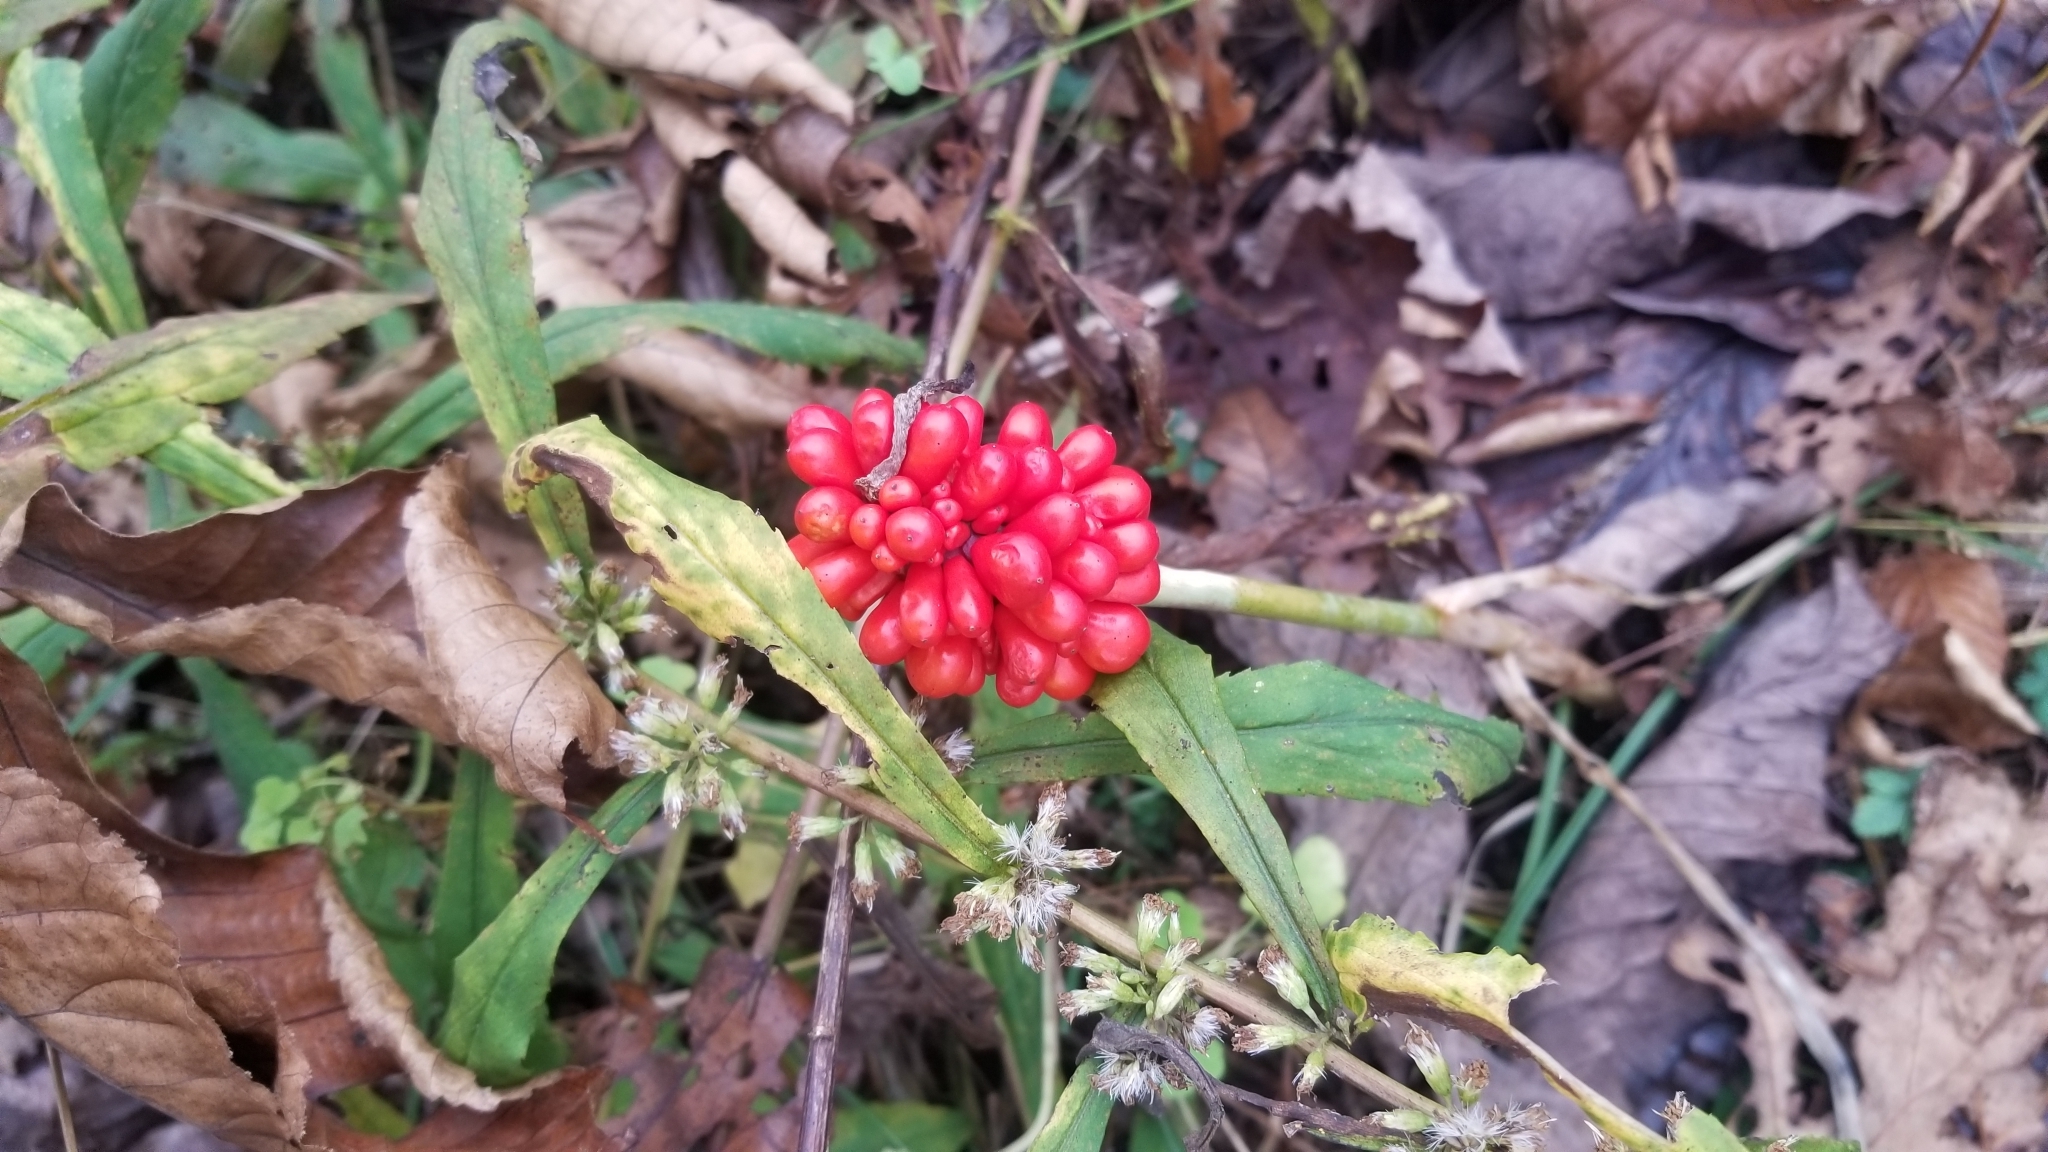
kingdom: Plantae
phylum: Tracheophyta
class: Liliopsida
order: Alismatales
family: Araceae
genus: Arisaema
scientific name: Arisaema triphyllum
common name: Jack-in-the-pulpit
